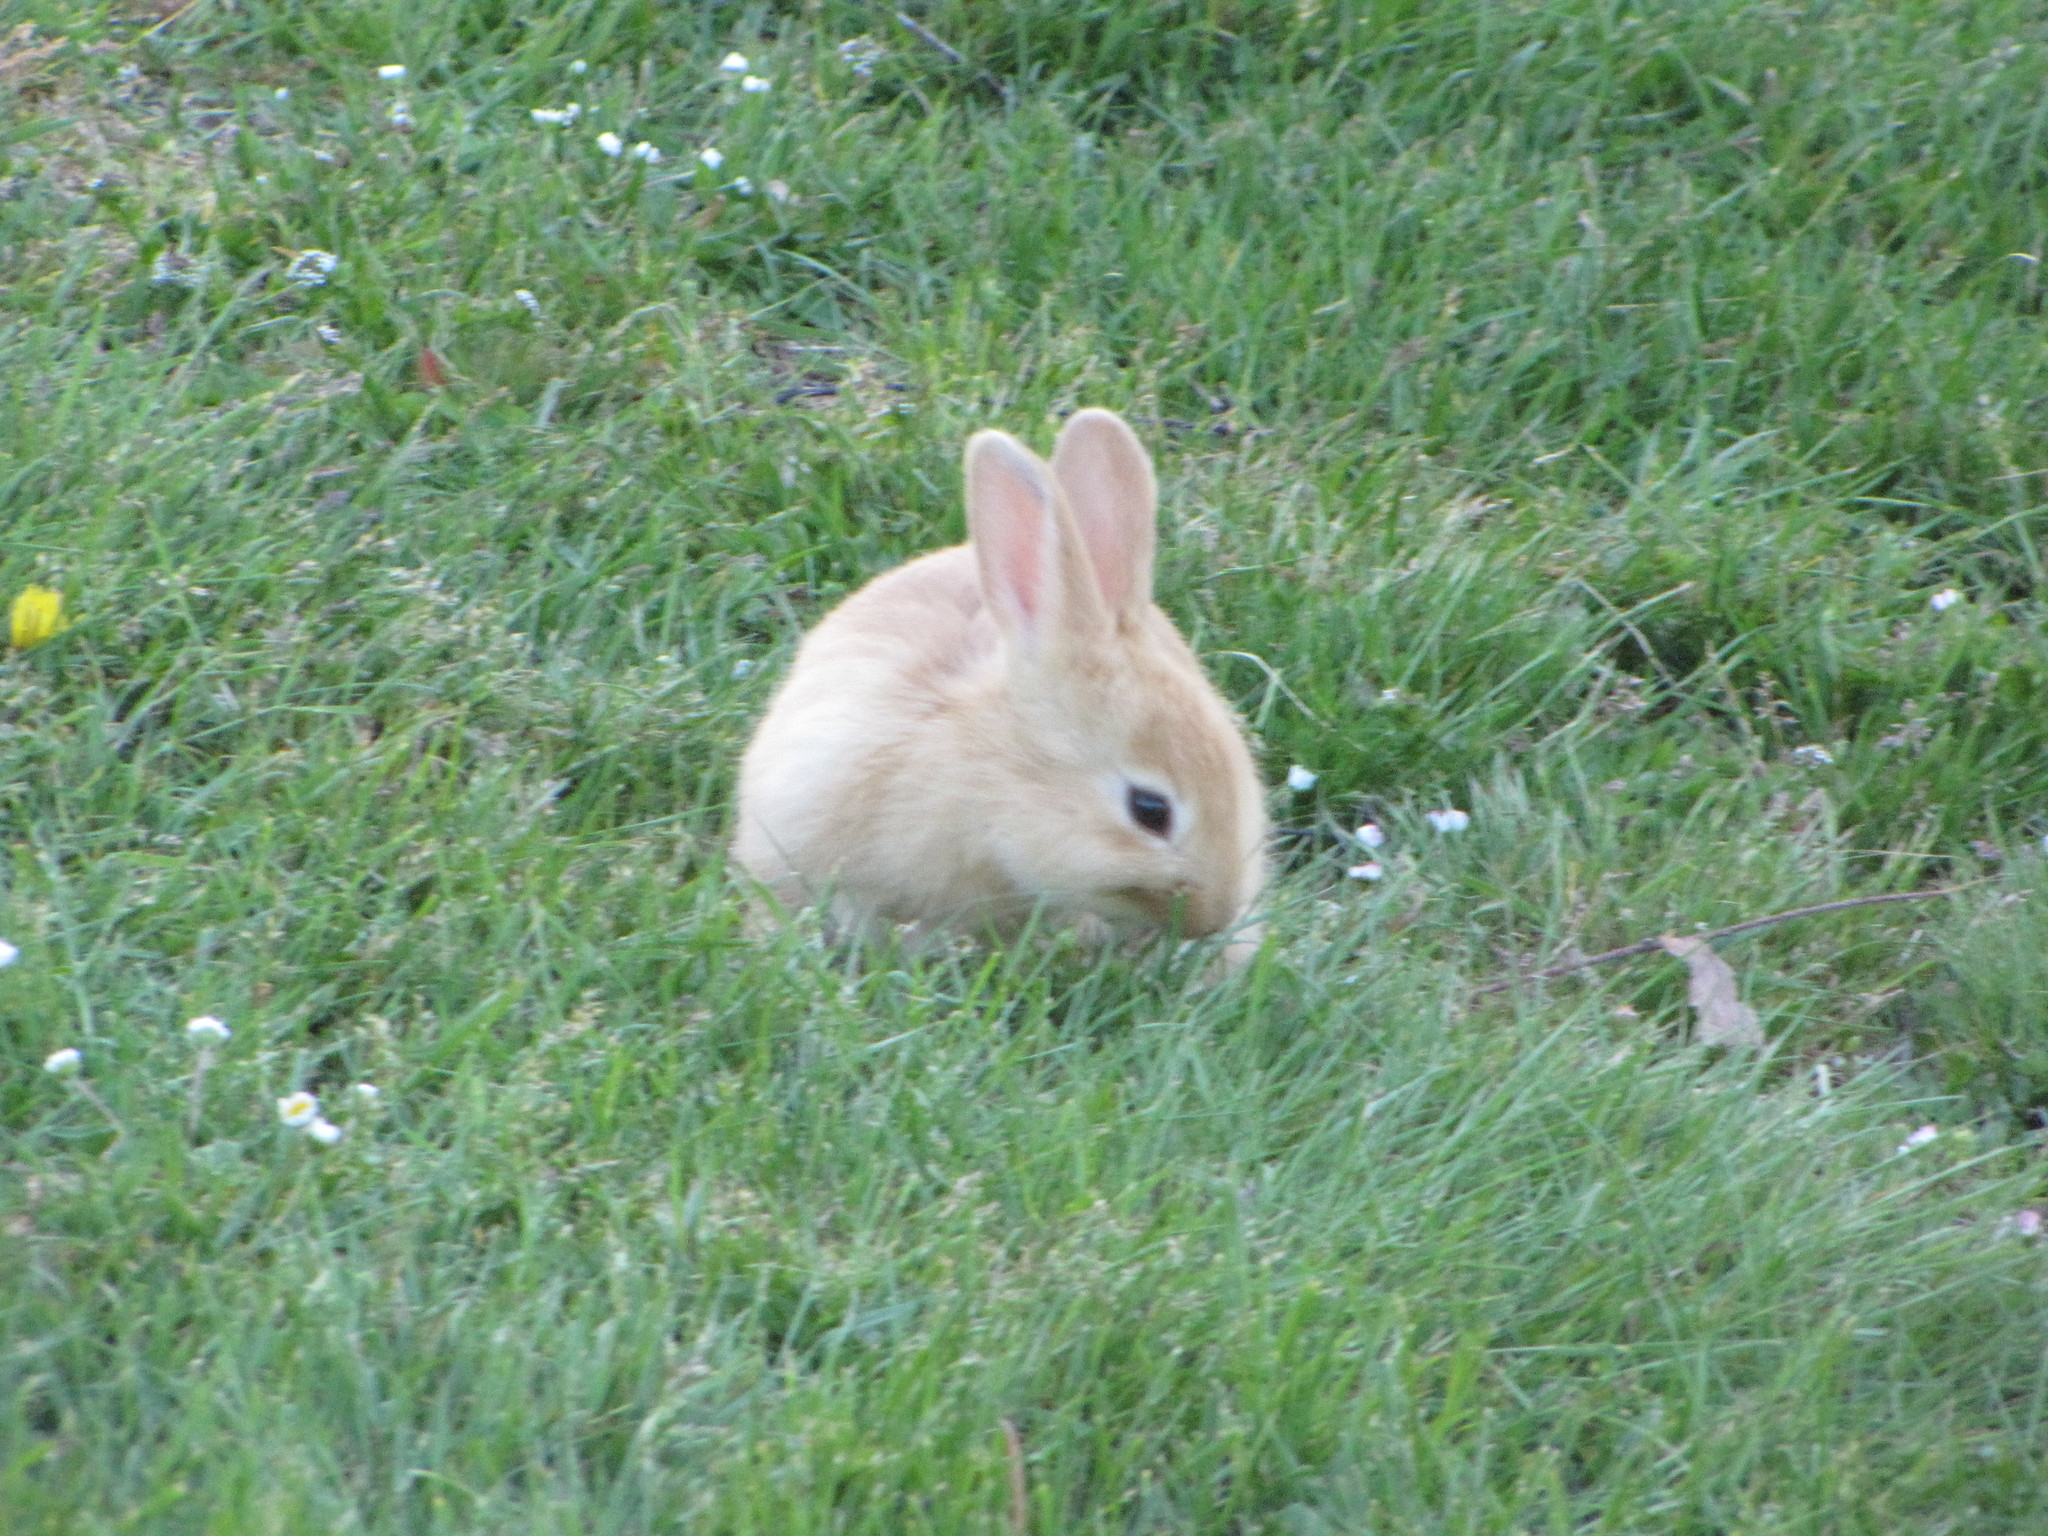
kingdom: Animalia
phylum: Chordata
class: Mammalia
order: Lagomorpha
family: Leporidae
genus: Oryctolagus
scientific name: Oryctolagus cuniculus
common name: European rabbit
